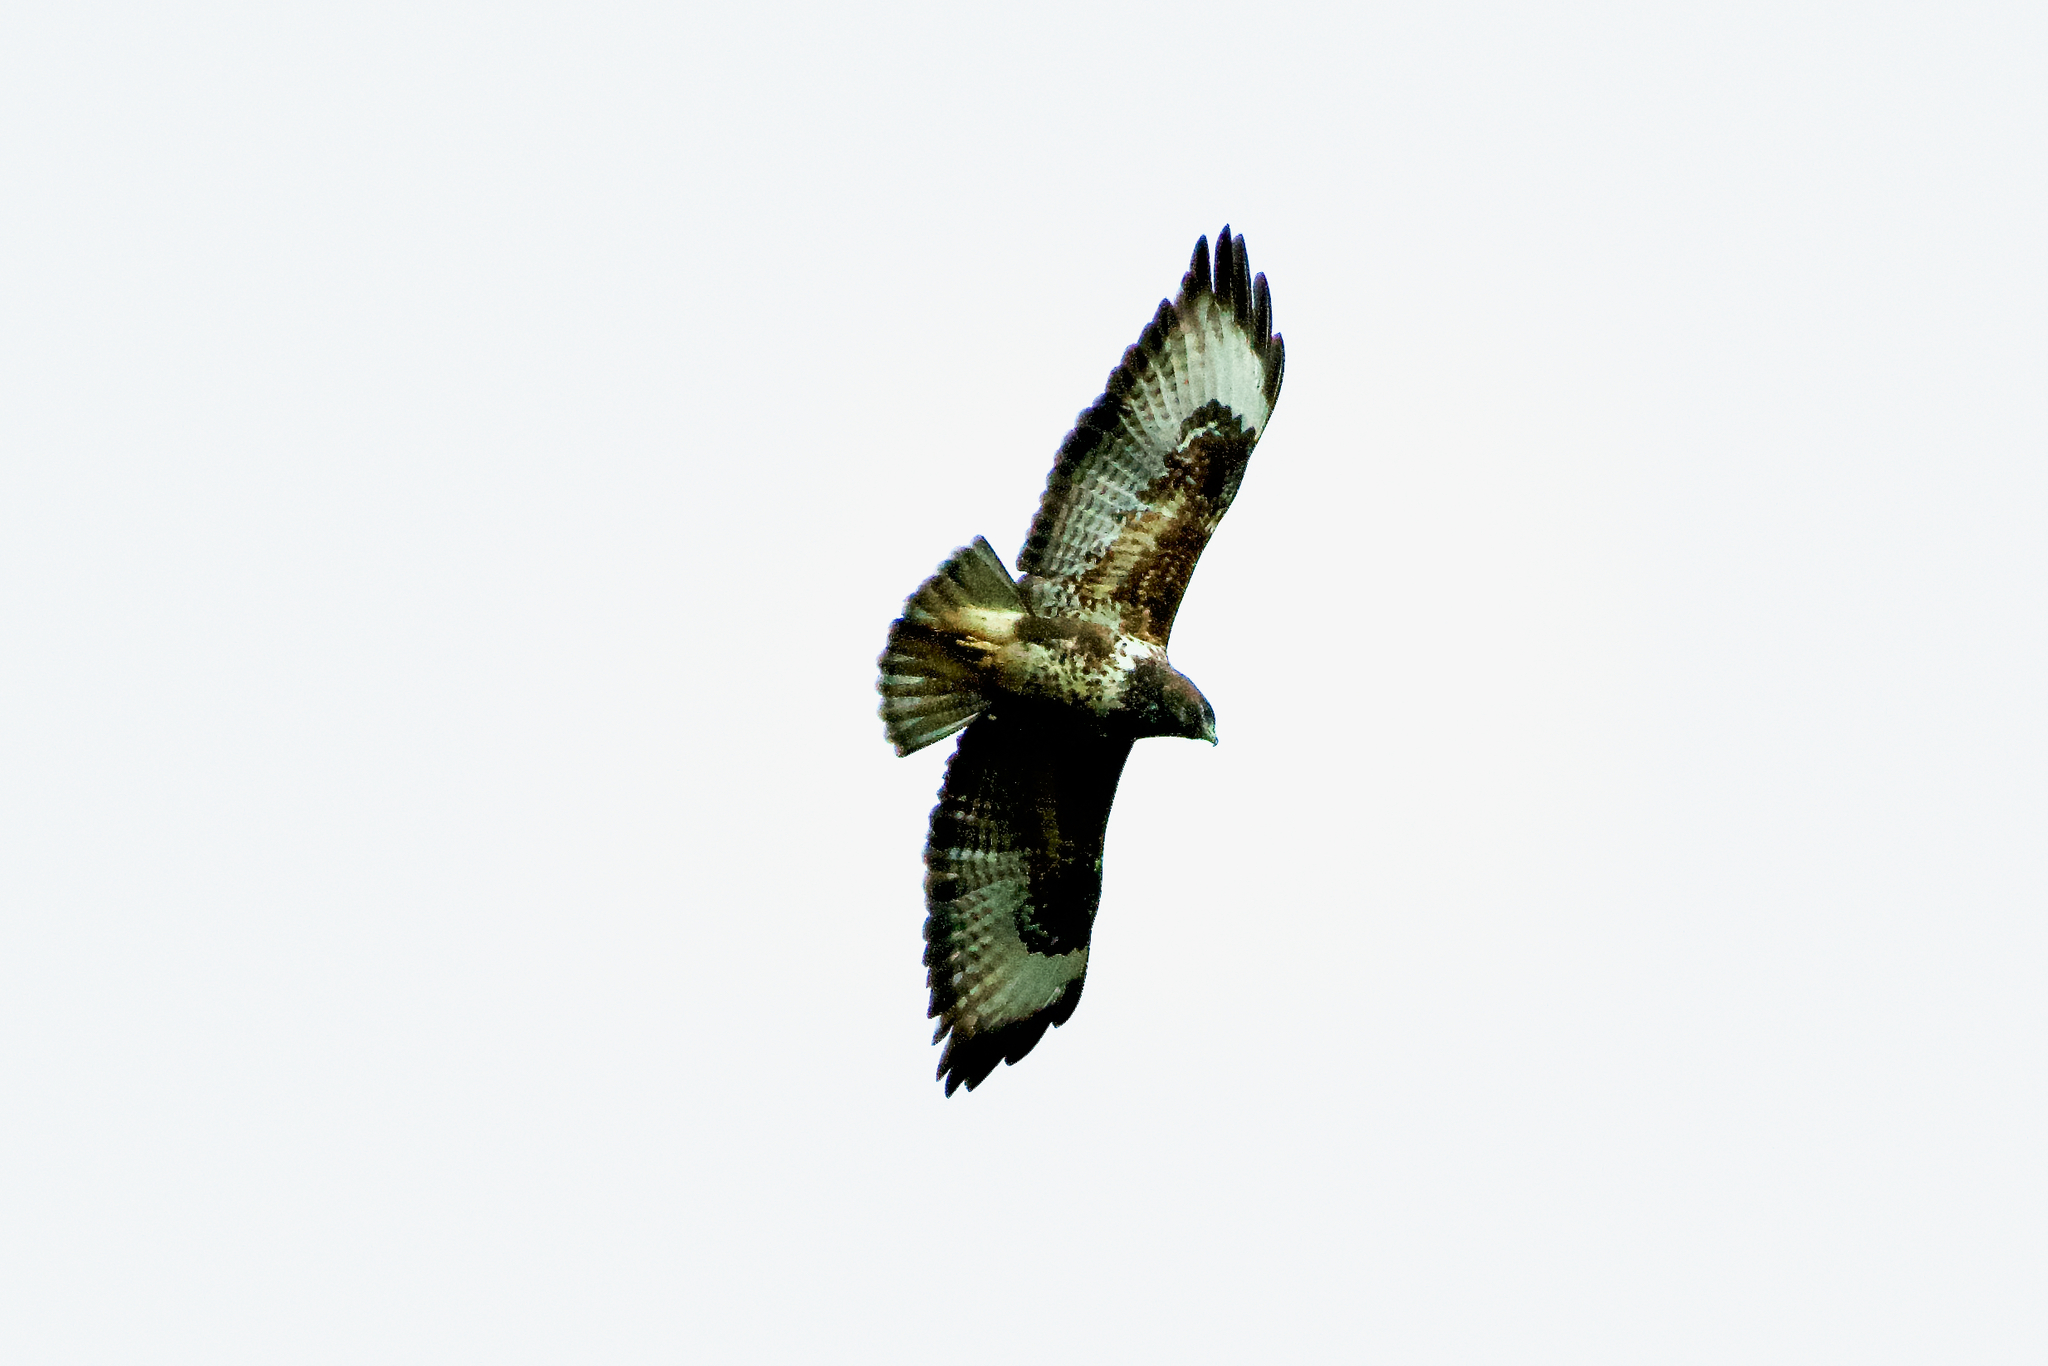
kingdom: Animalia
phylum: Chordata
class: Aves
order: Accipitriformes
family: Accipitridae
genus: Buteo
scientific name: Buteo buteo
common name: Common buzzard
